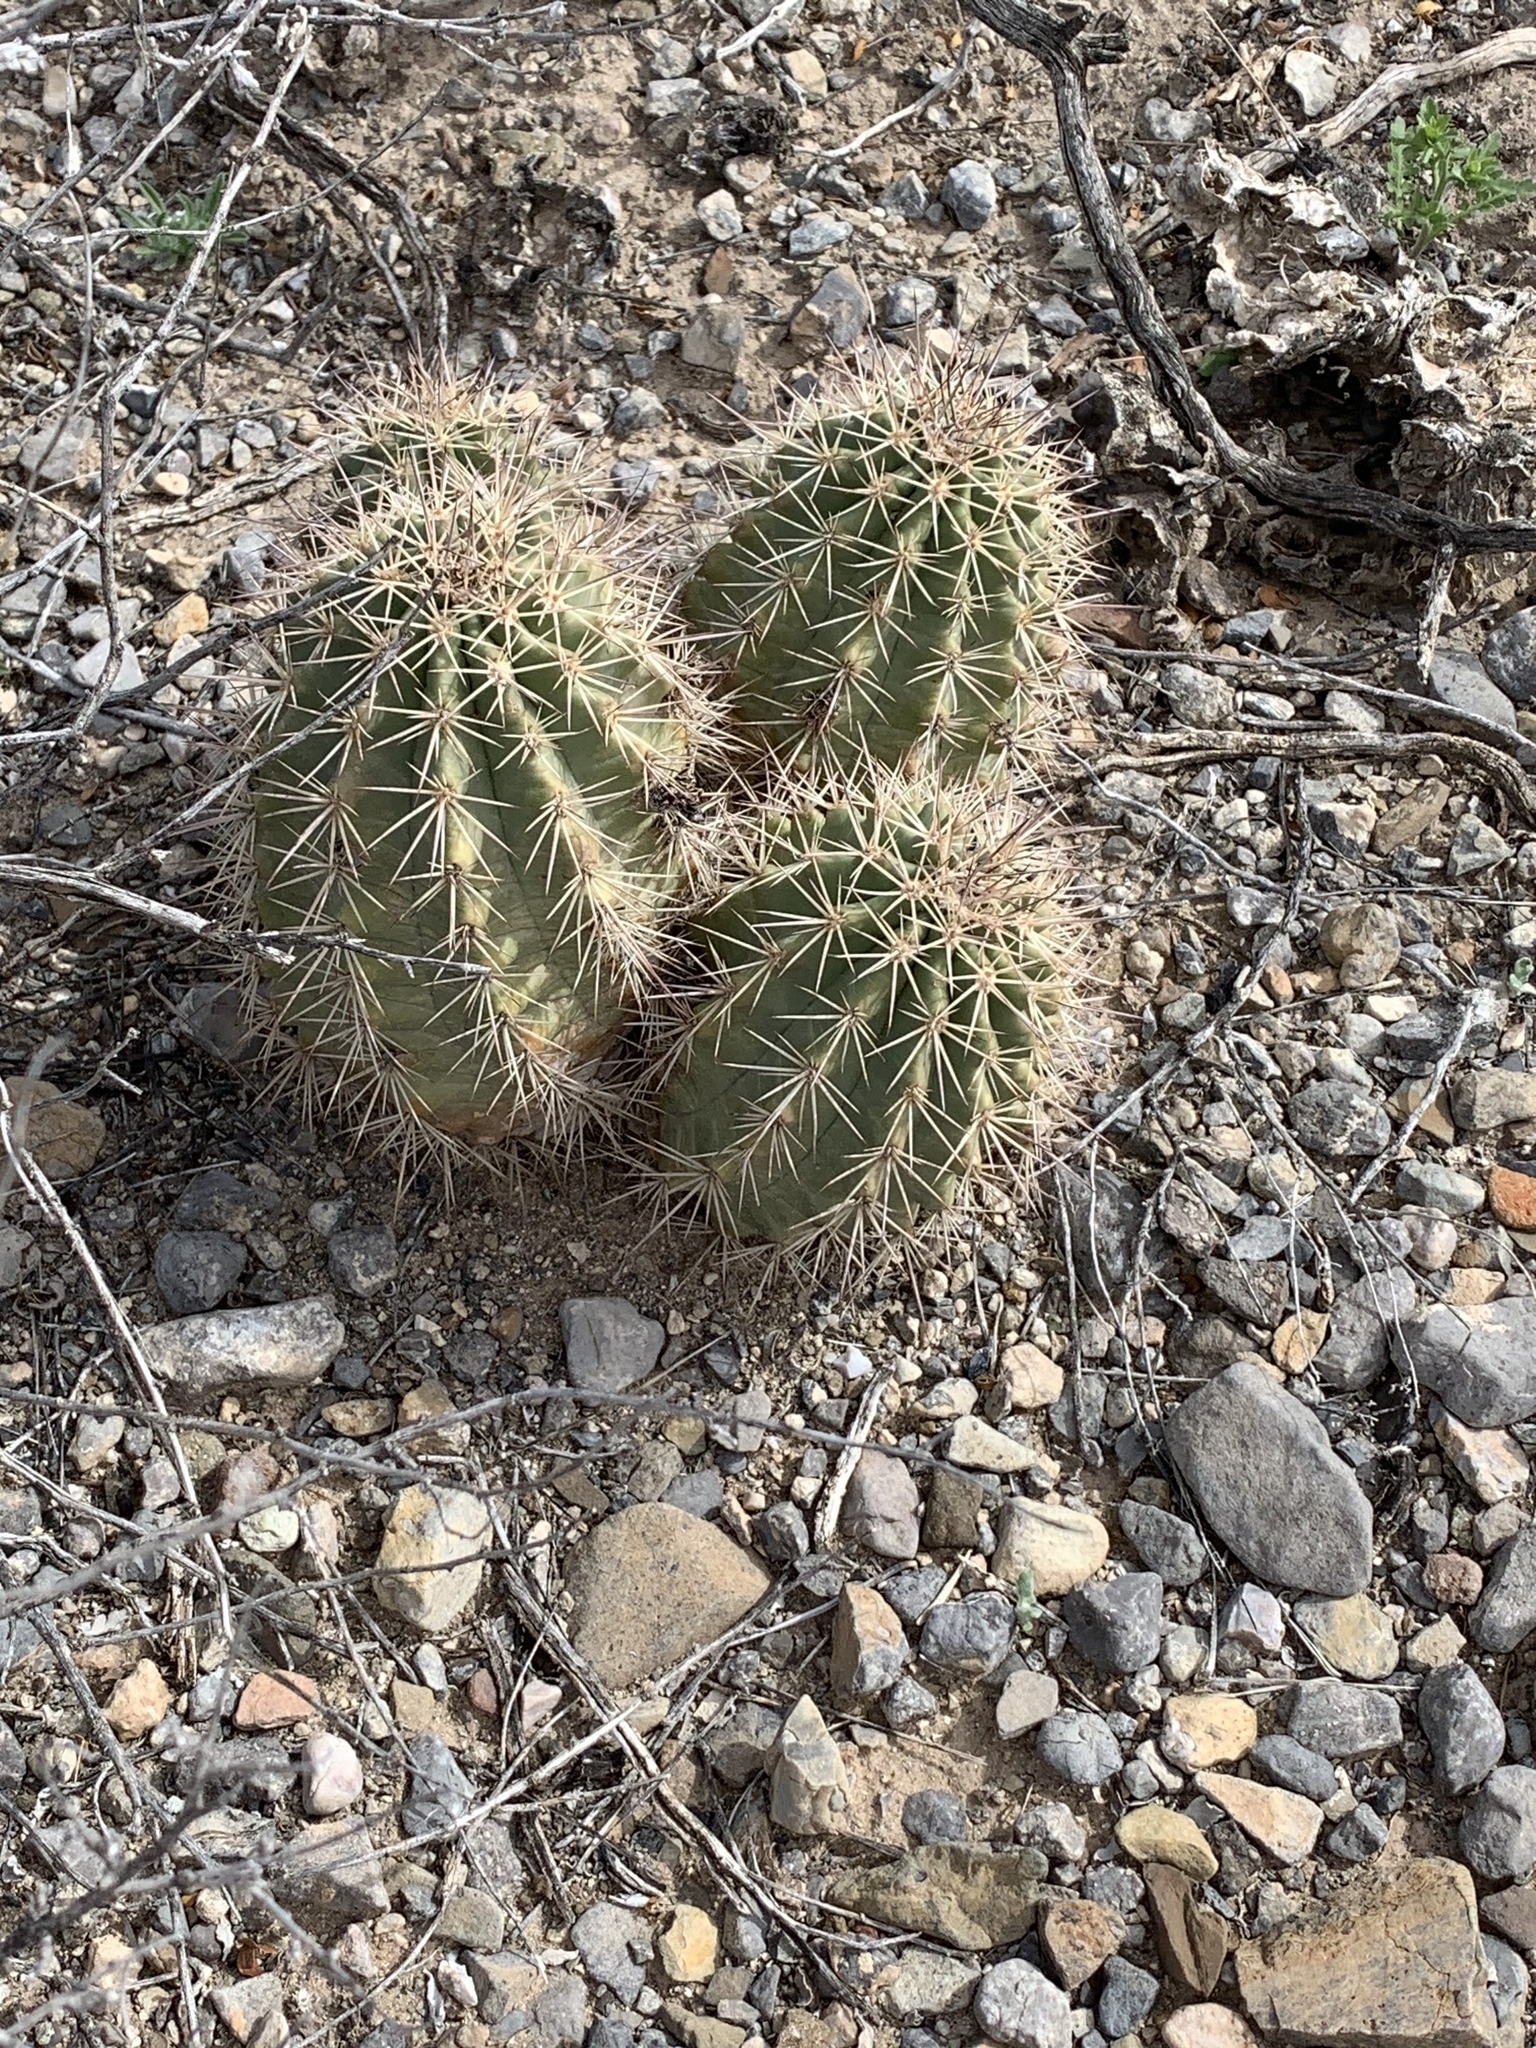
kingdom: Plantae
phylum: Tracheophyta
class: Magnoliopsida
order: Caryophyllales
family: Cactaceae
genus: Echinocereus
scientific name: Echinocereus coccineus
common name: Scarlet hedgehog cactus
